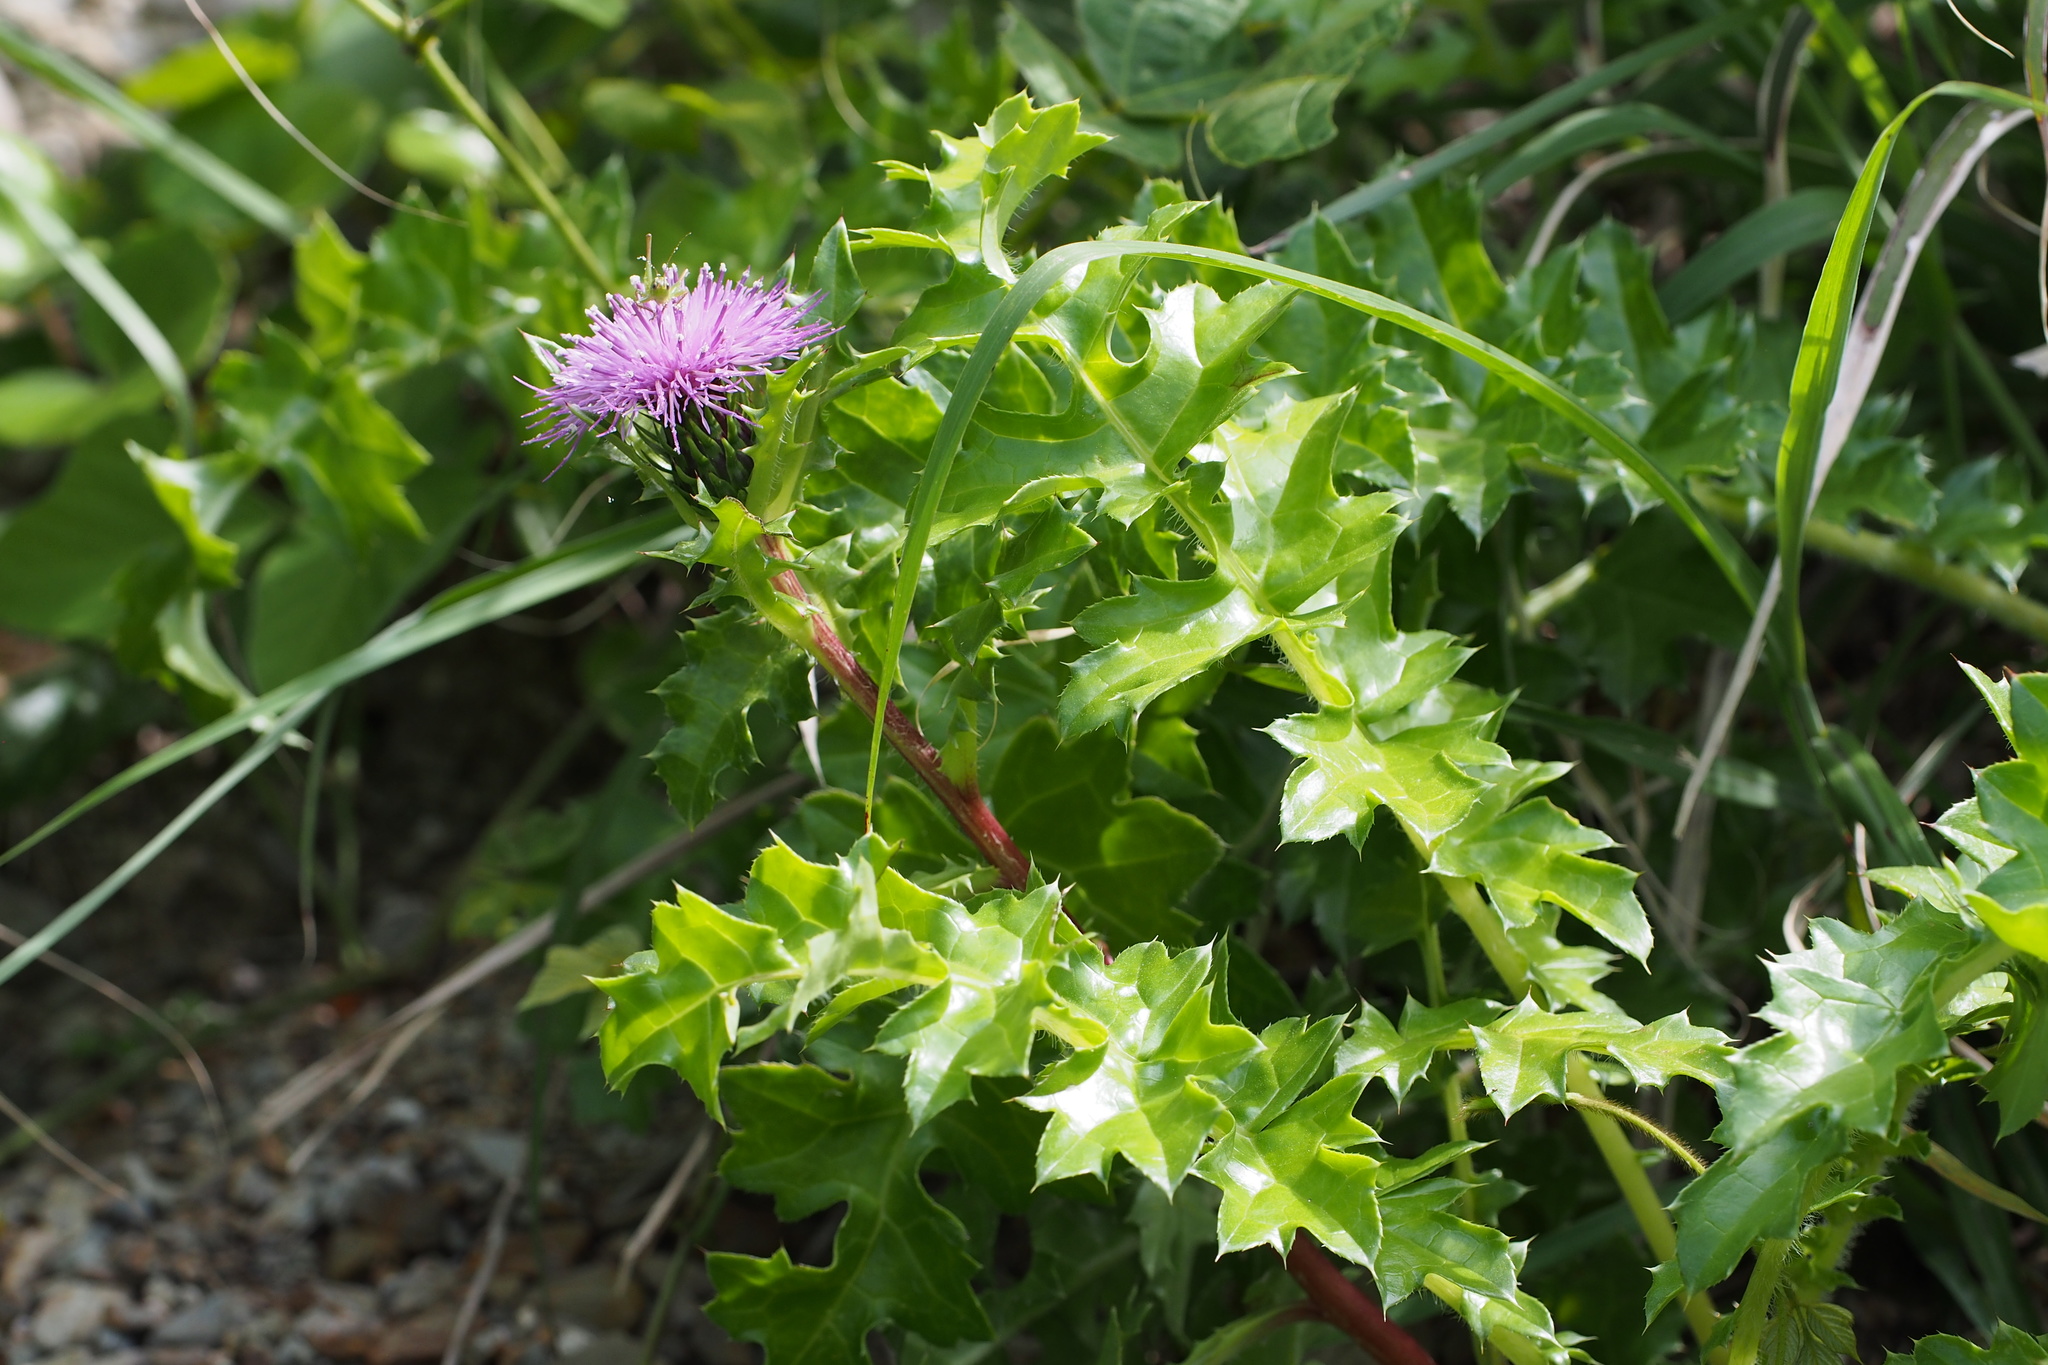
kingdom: Plantae
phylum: Tracheophyta
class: Magnoliopsida
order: Asterales
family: Asteraceae
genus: Cirsium
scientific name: Cirsium maritimum
